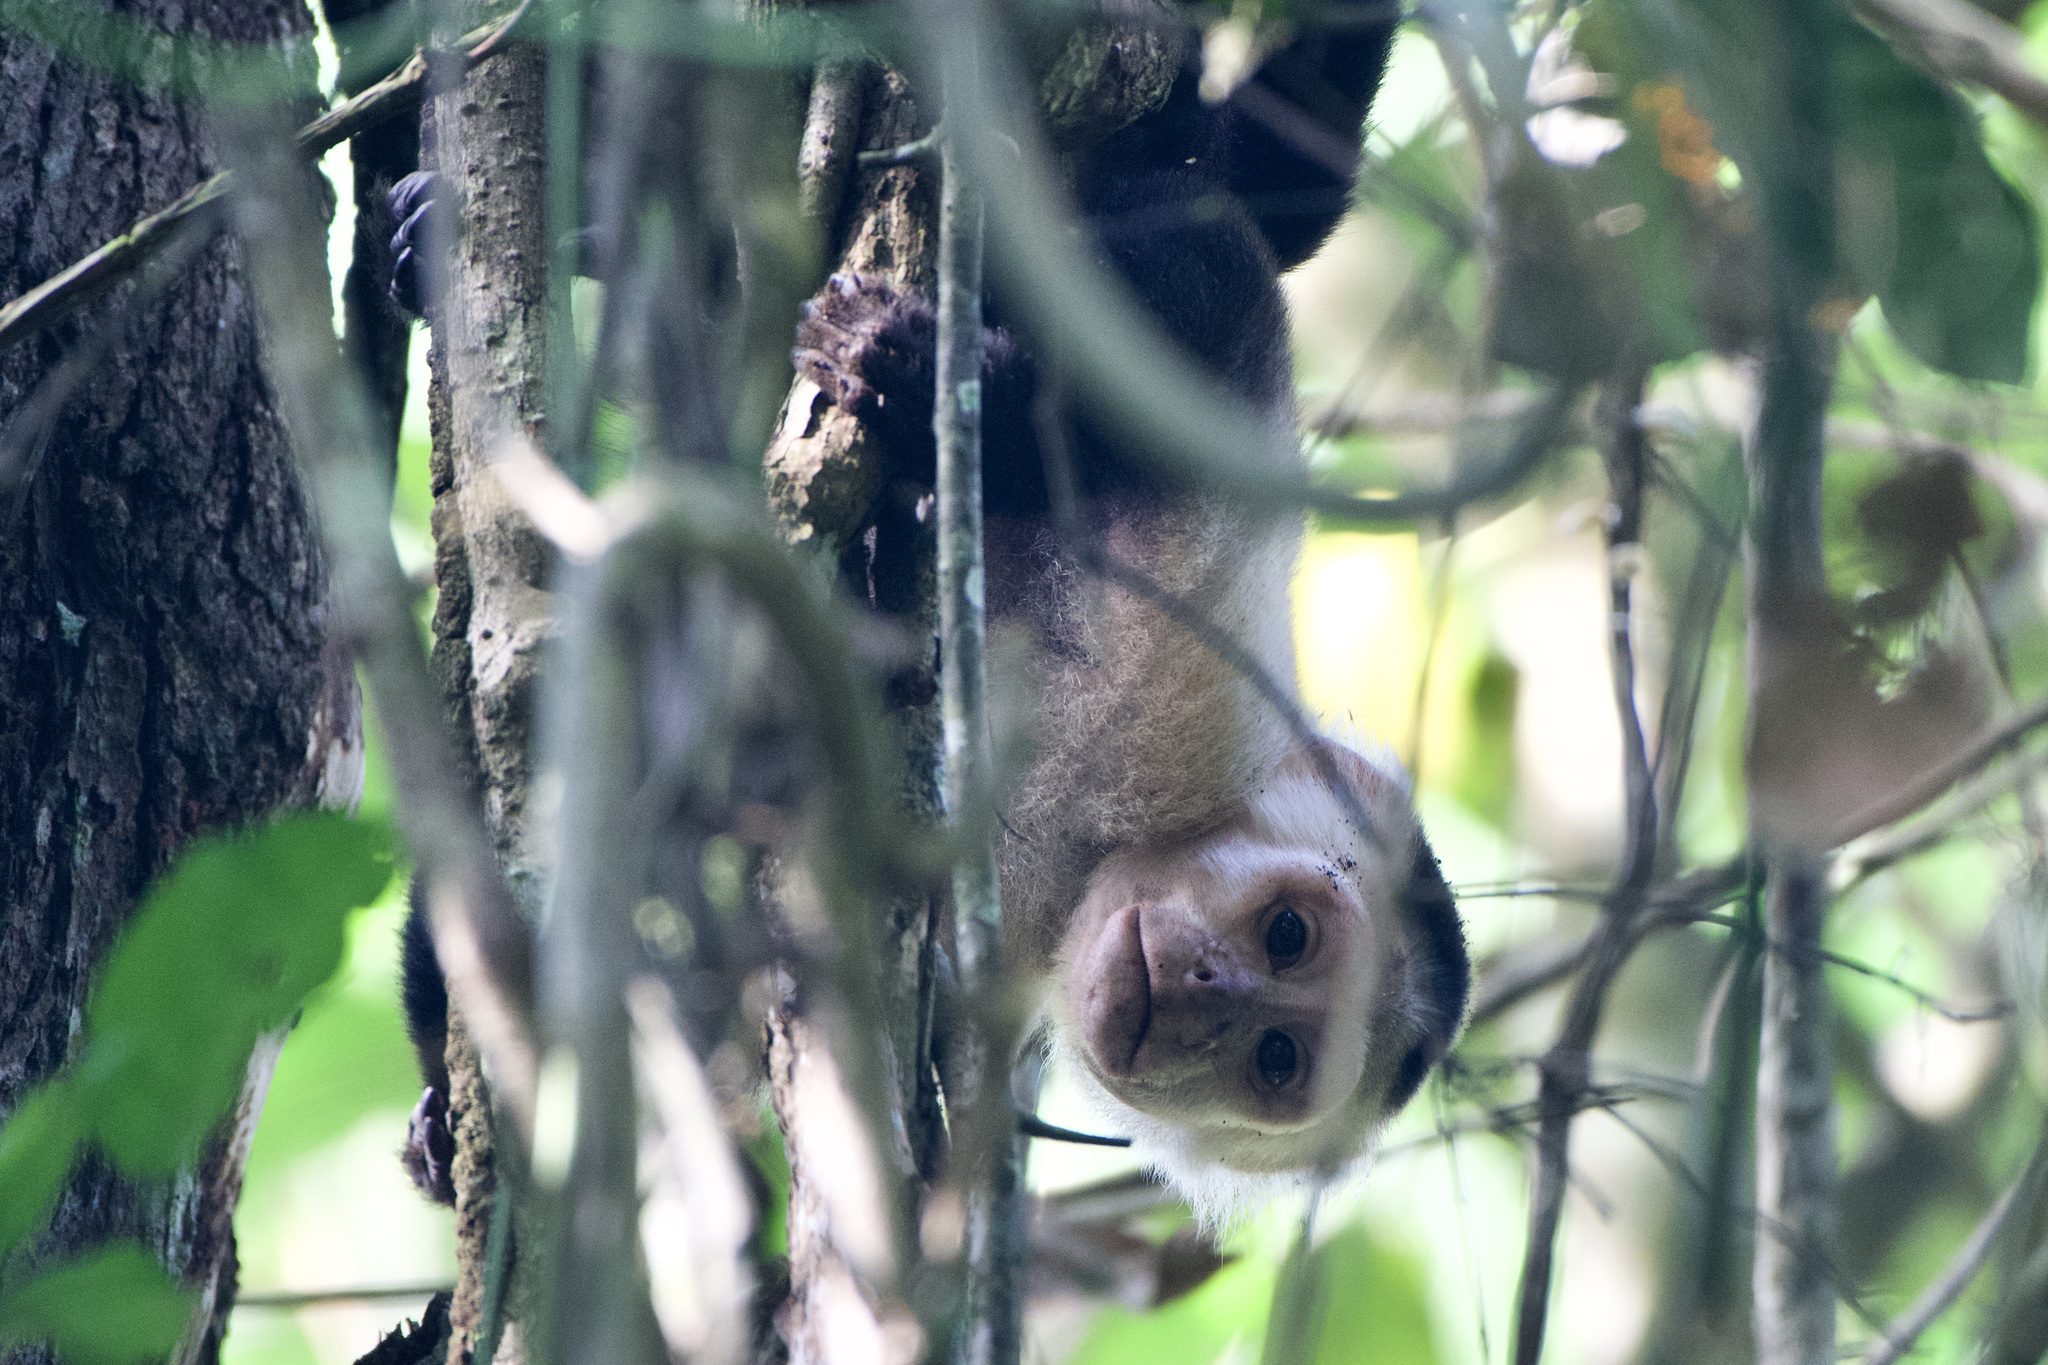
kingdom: Animalia
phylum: Chordata
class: Mammalia
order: Primates
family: Cebidae
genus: Cebus
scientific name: Cebus imitator
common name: Panamanian white-faced capuchin
